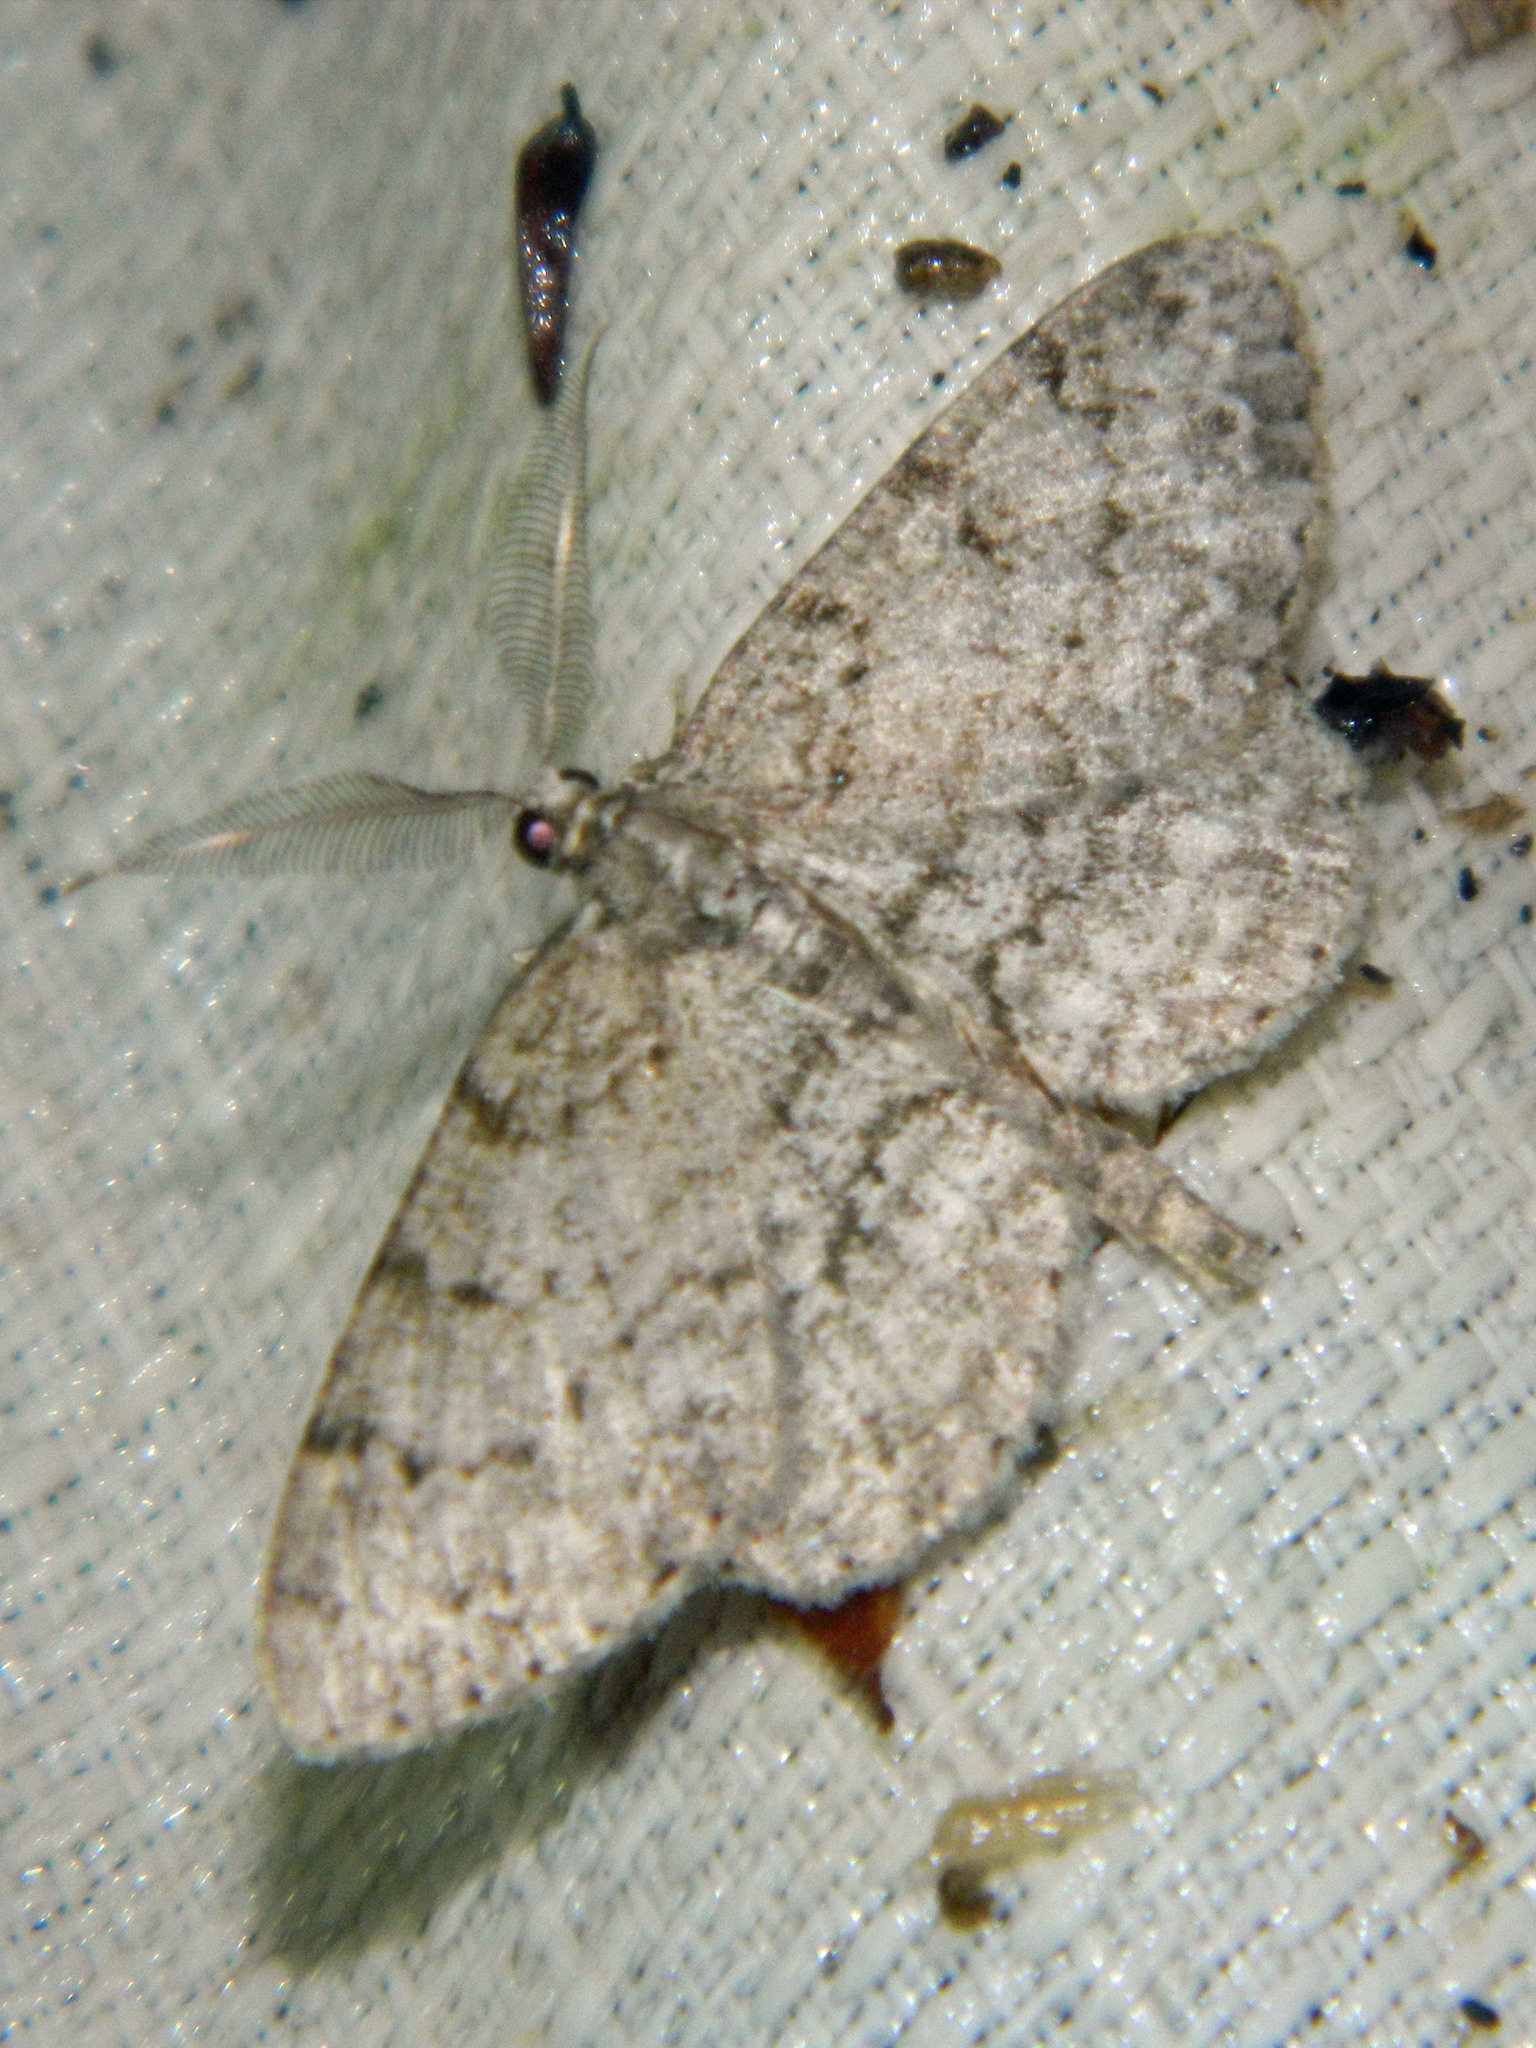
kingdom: Animalia
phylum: Arthropoda
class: Insecta
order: Lepidoptera
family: Geometridae
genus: Protoboarmia
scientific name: Protoboarmia porcelaria
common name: Porcelain gray
